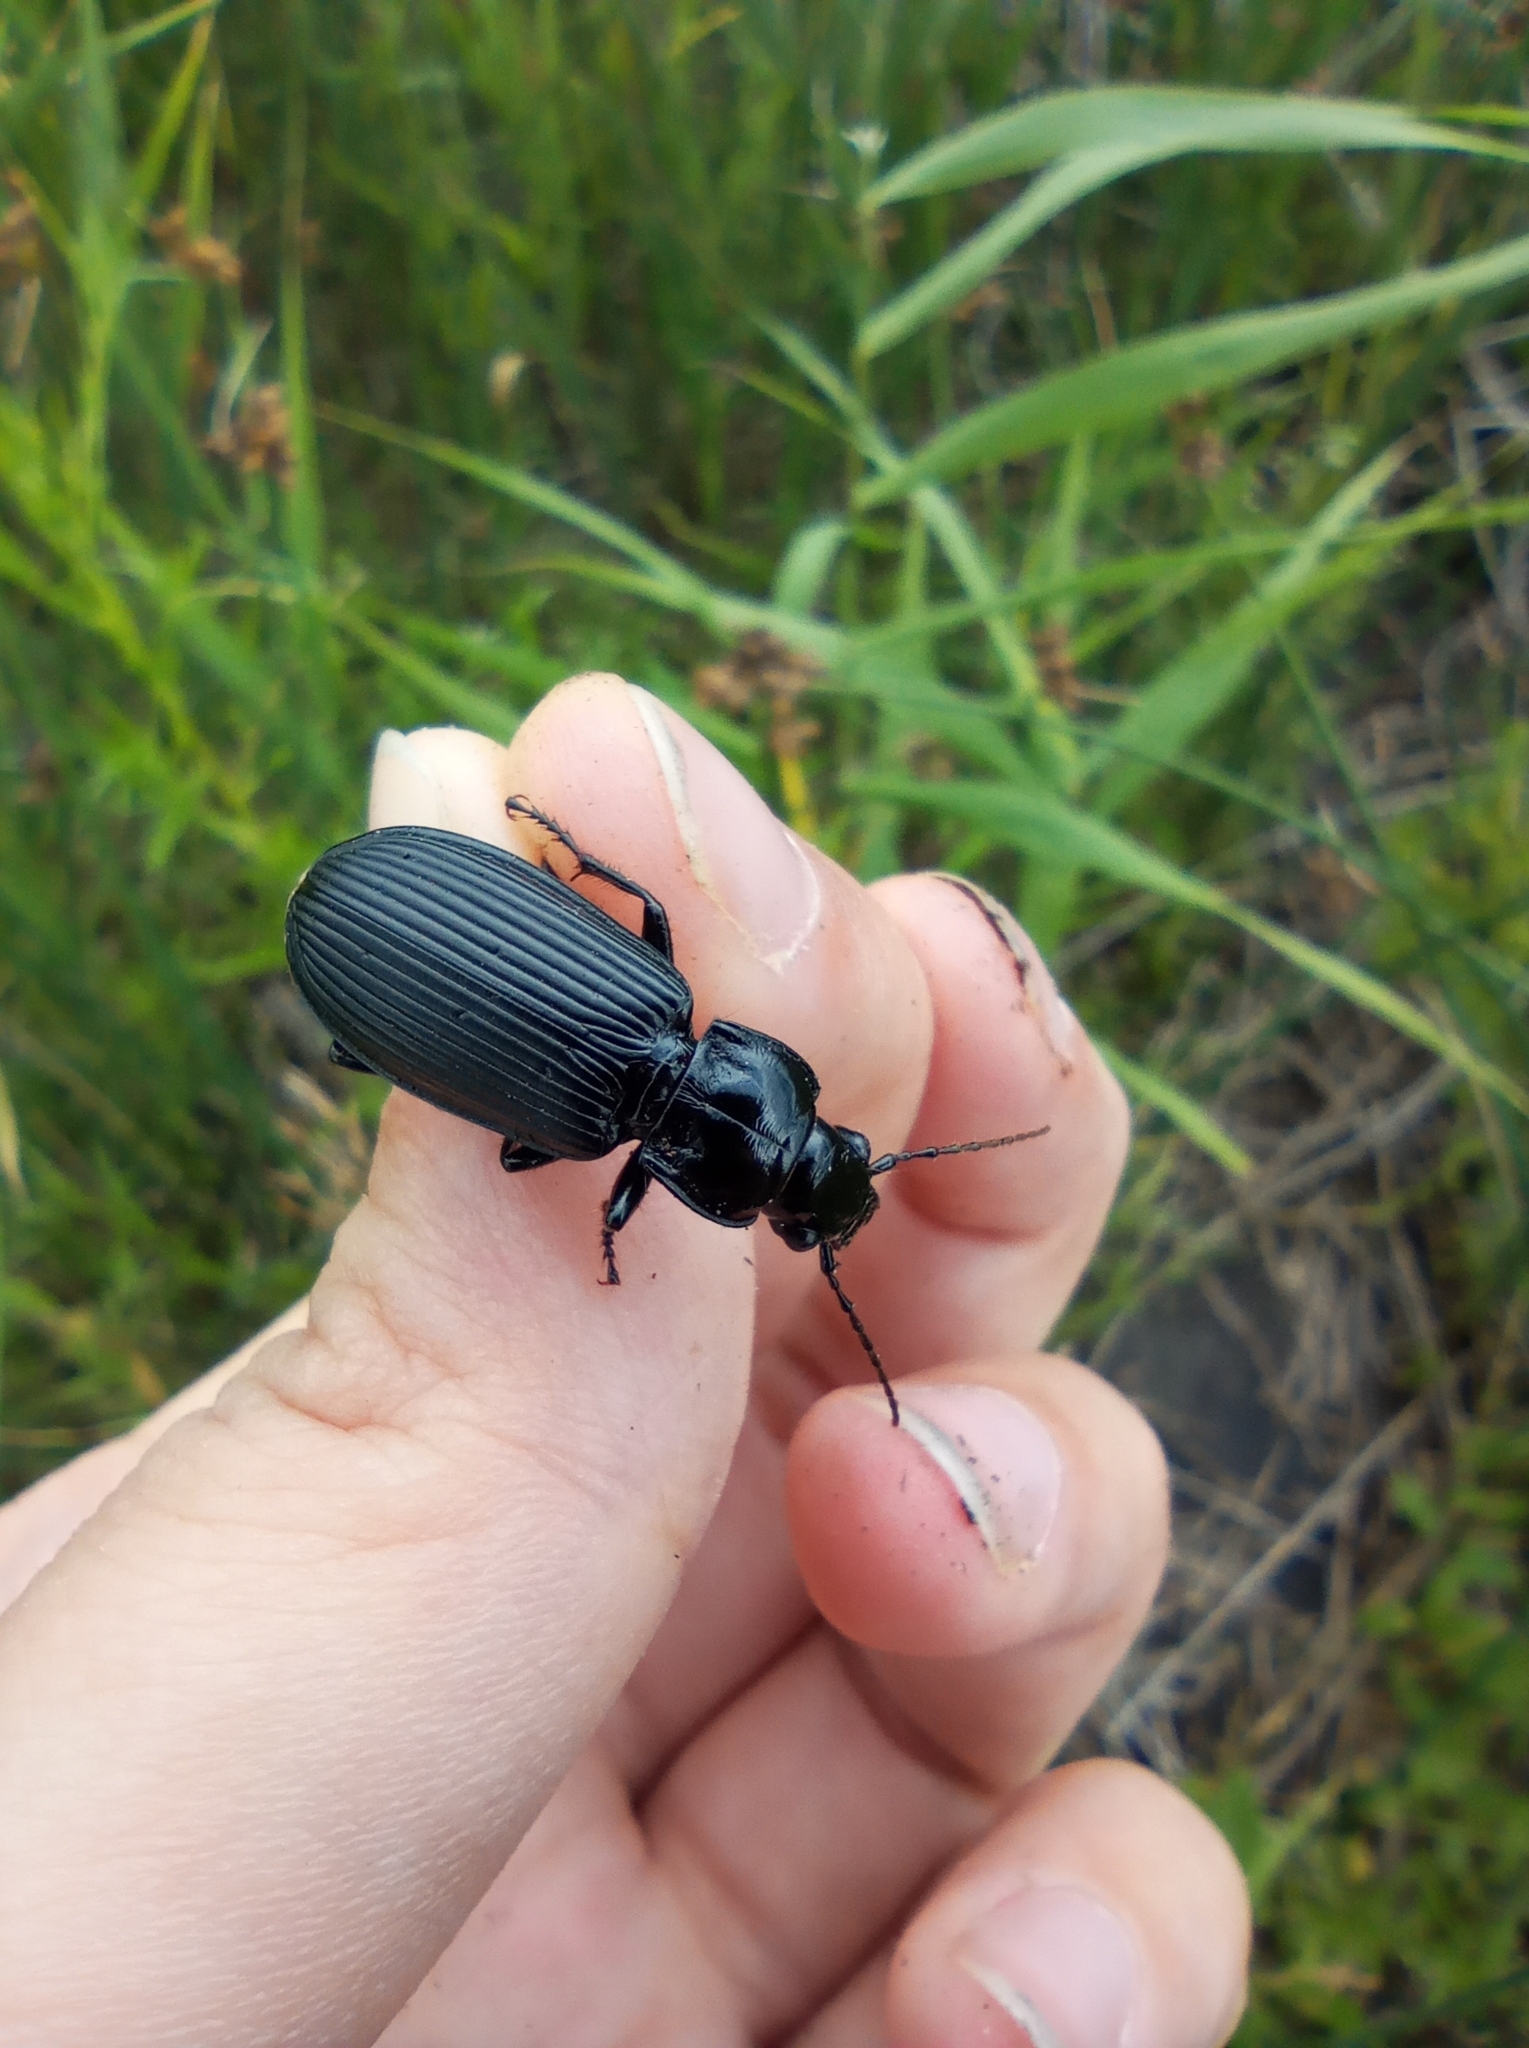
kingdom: Animalia
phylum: Arthropoda
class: Insecta
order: Coleoptera
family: Carabidae
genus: Pterostichus
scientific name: Pterostichus niger
